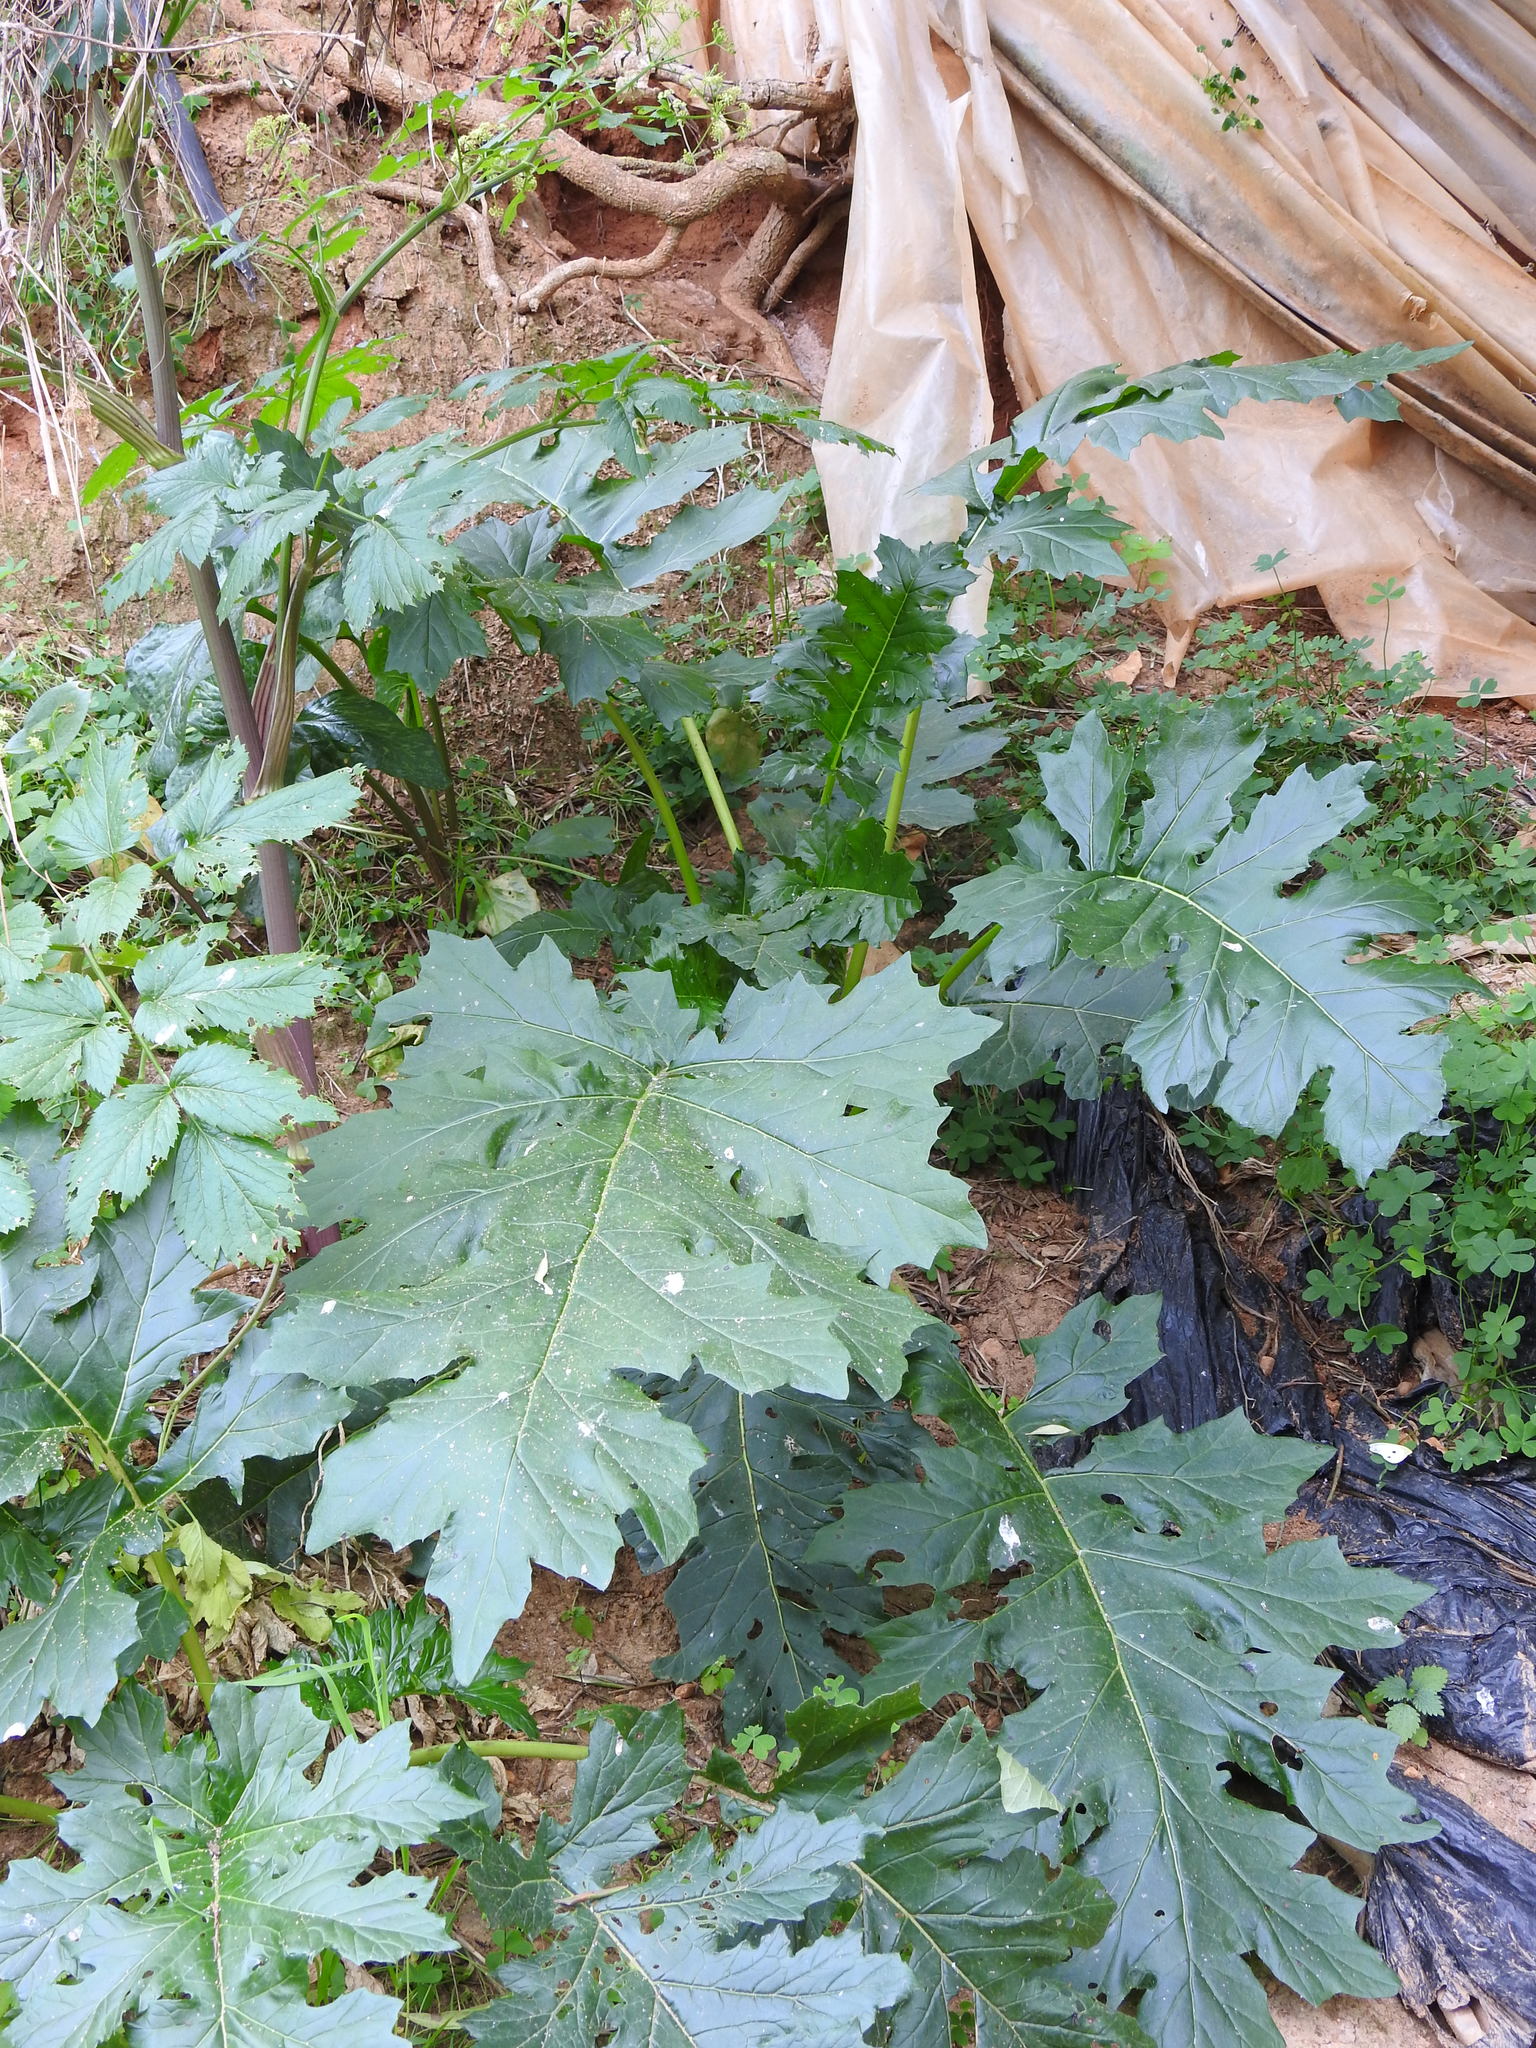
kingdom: Plantae
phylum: Tracheophyta
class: Magnoliopsida
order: Lamiales
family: Acanthaceae
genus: Acanthus
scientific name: Acanthus mollis
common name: Bear's-breech
